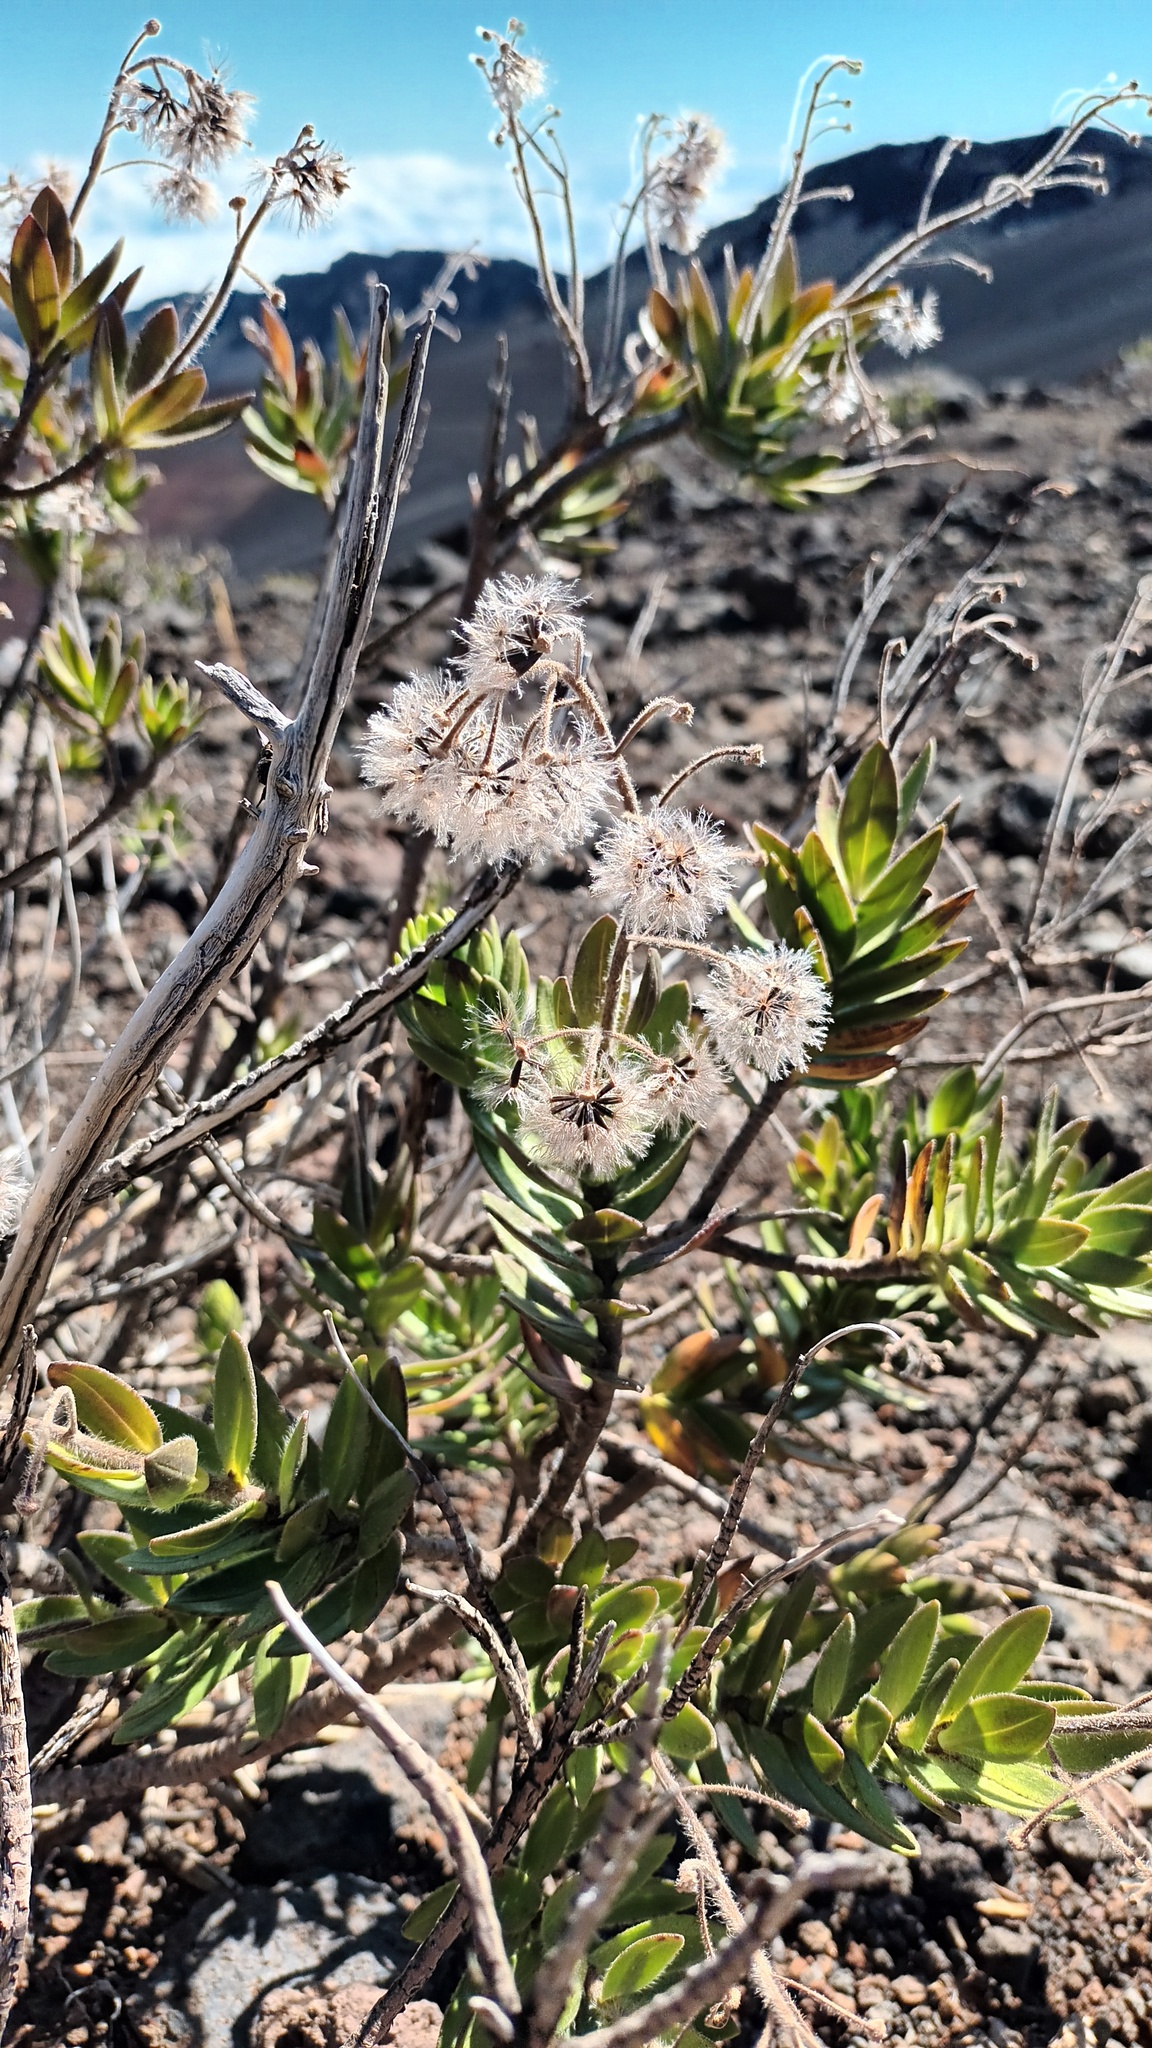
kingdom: Plantae
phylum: Tracheophyta
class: Magnoliopsida
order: Asterales
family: Asteraceae
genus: Dubautia
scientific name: Dubautia menziesii
